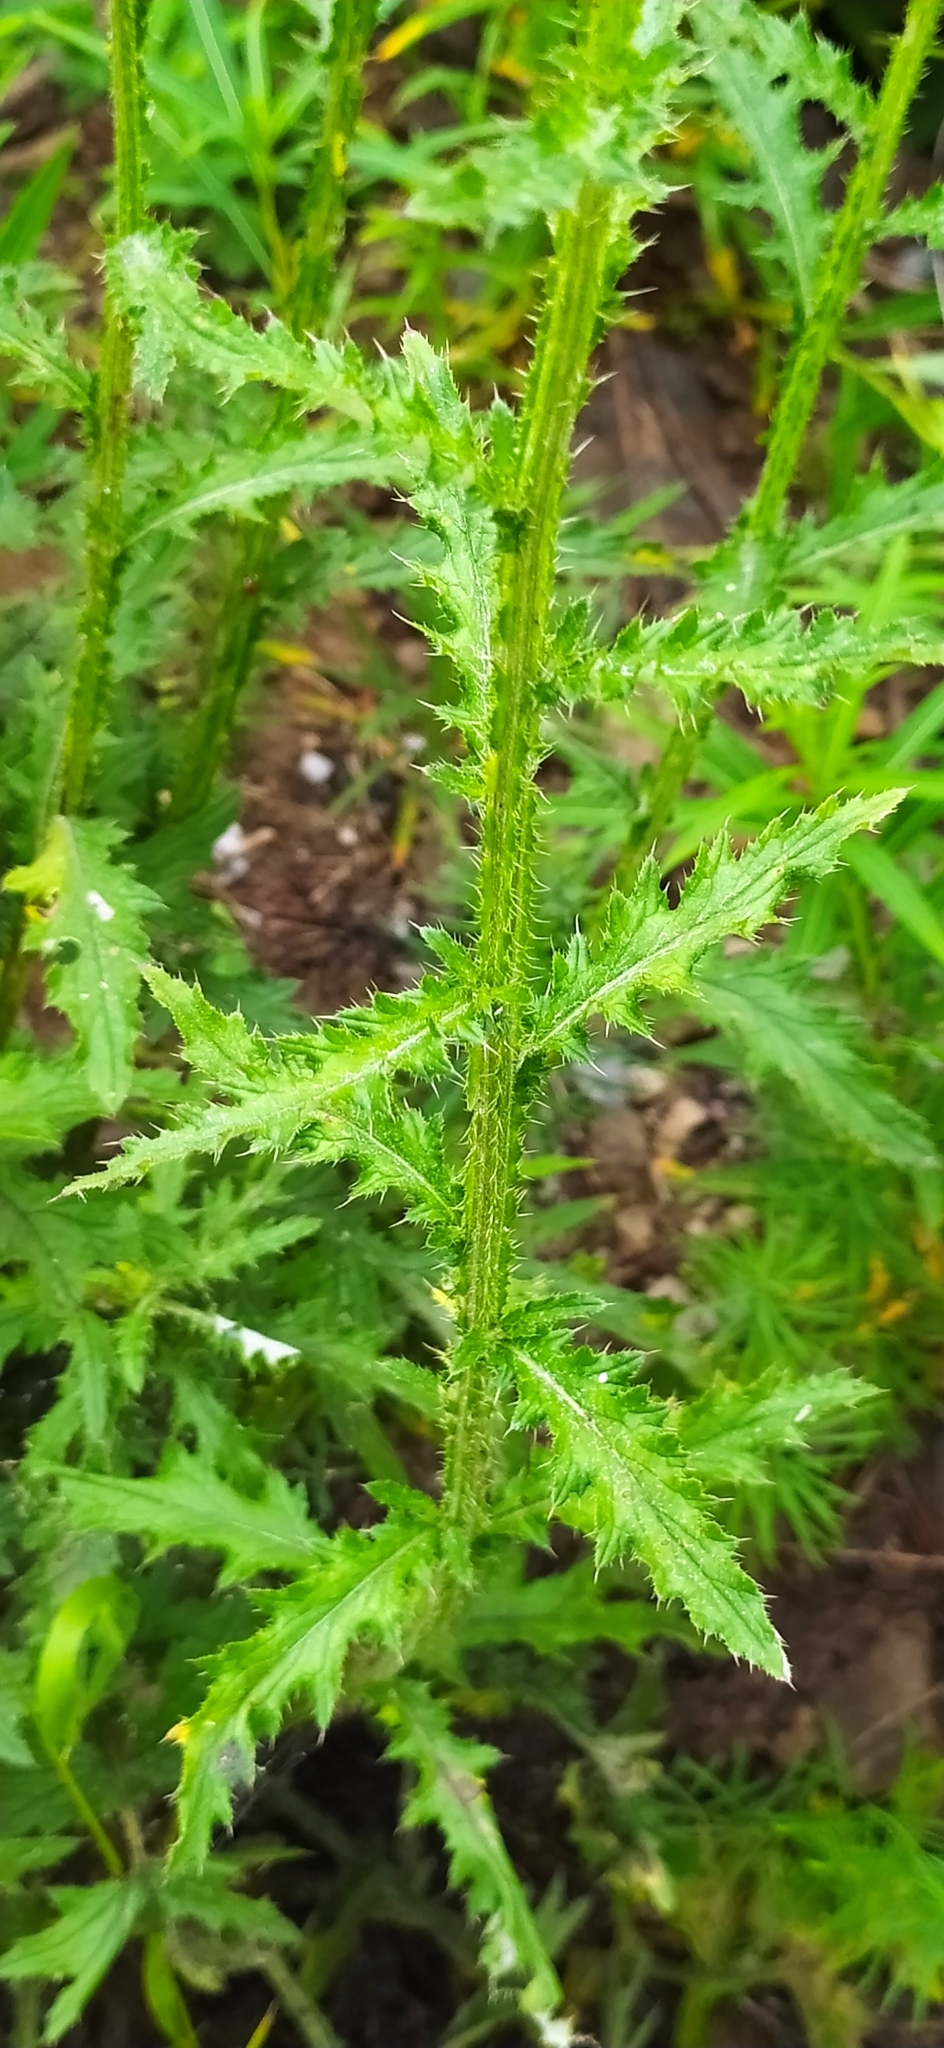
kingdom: Plantae
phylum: Tracheophyta
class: Magnoliopsida
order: Asterales
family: Asteraceae
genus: Carduus
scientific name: Carduus crispus
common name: Welted thistle
